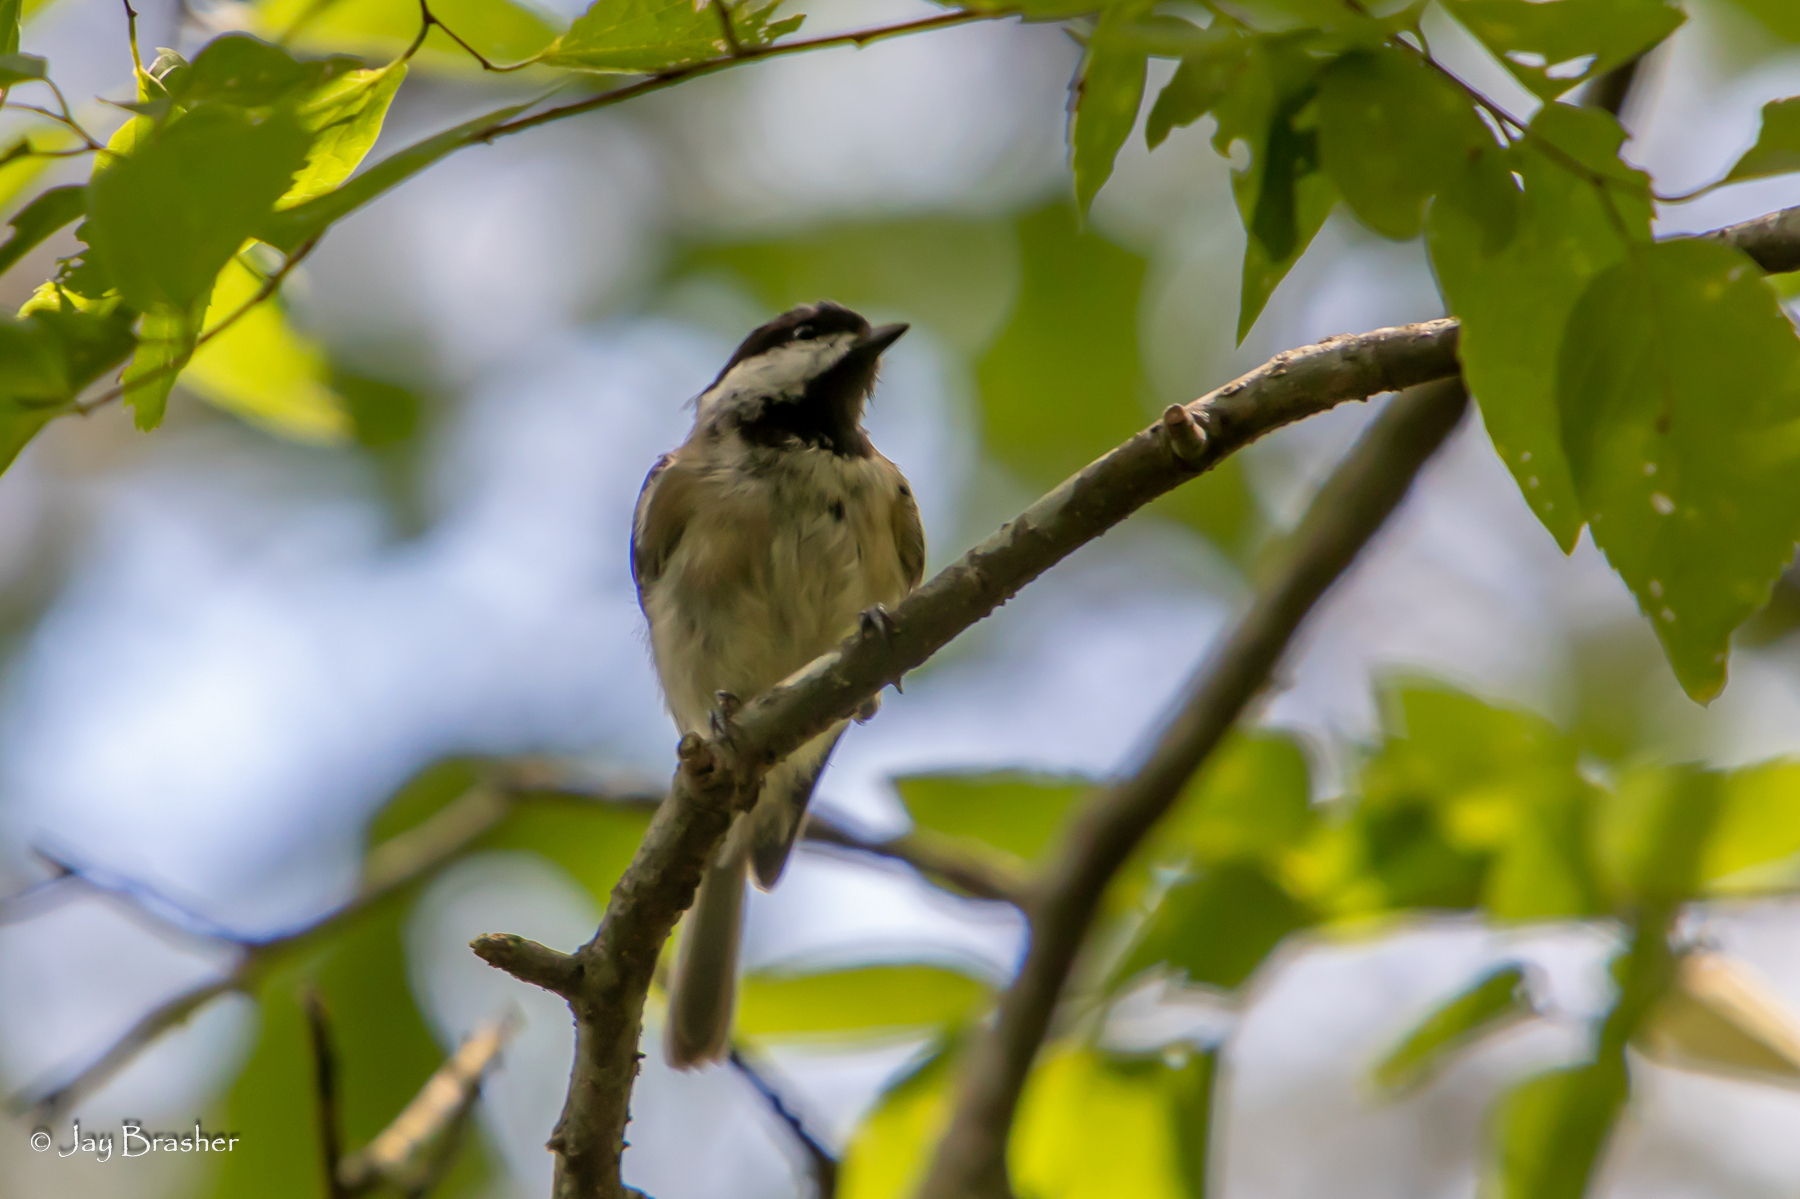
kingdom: Animalia
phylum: Chordata
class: Aves
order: Passeriformes
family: Paridae
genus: Poecile
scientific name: Poecile carolinensis
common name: Carolina chickadee
